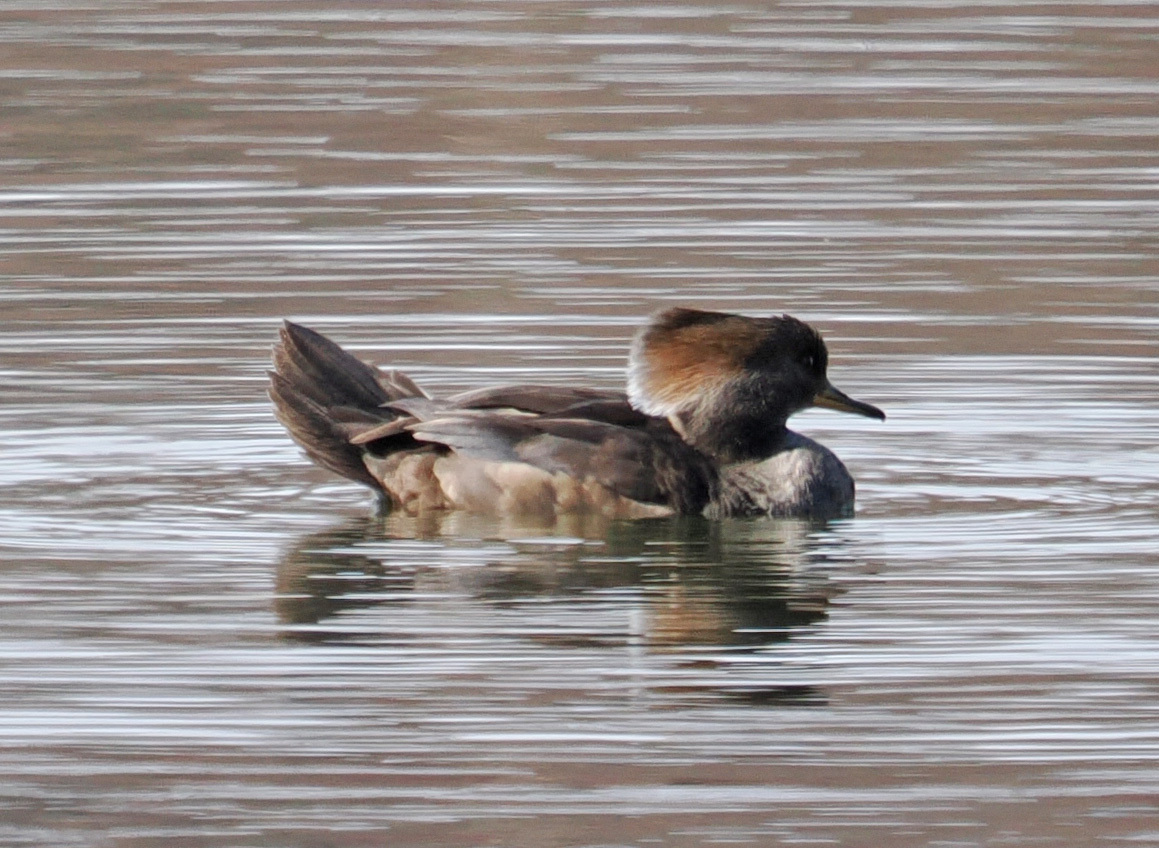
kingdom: Animalia
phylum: Chordata
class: Aves
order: Anseriformes
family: Anatidae
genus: Lophodytes
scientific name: Lophodytes cucullatus
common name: Hooded merganser
